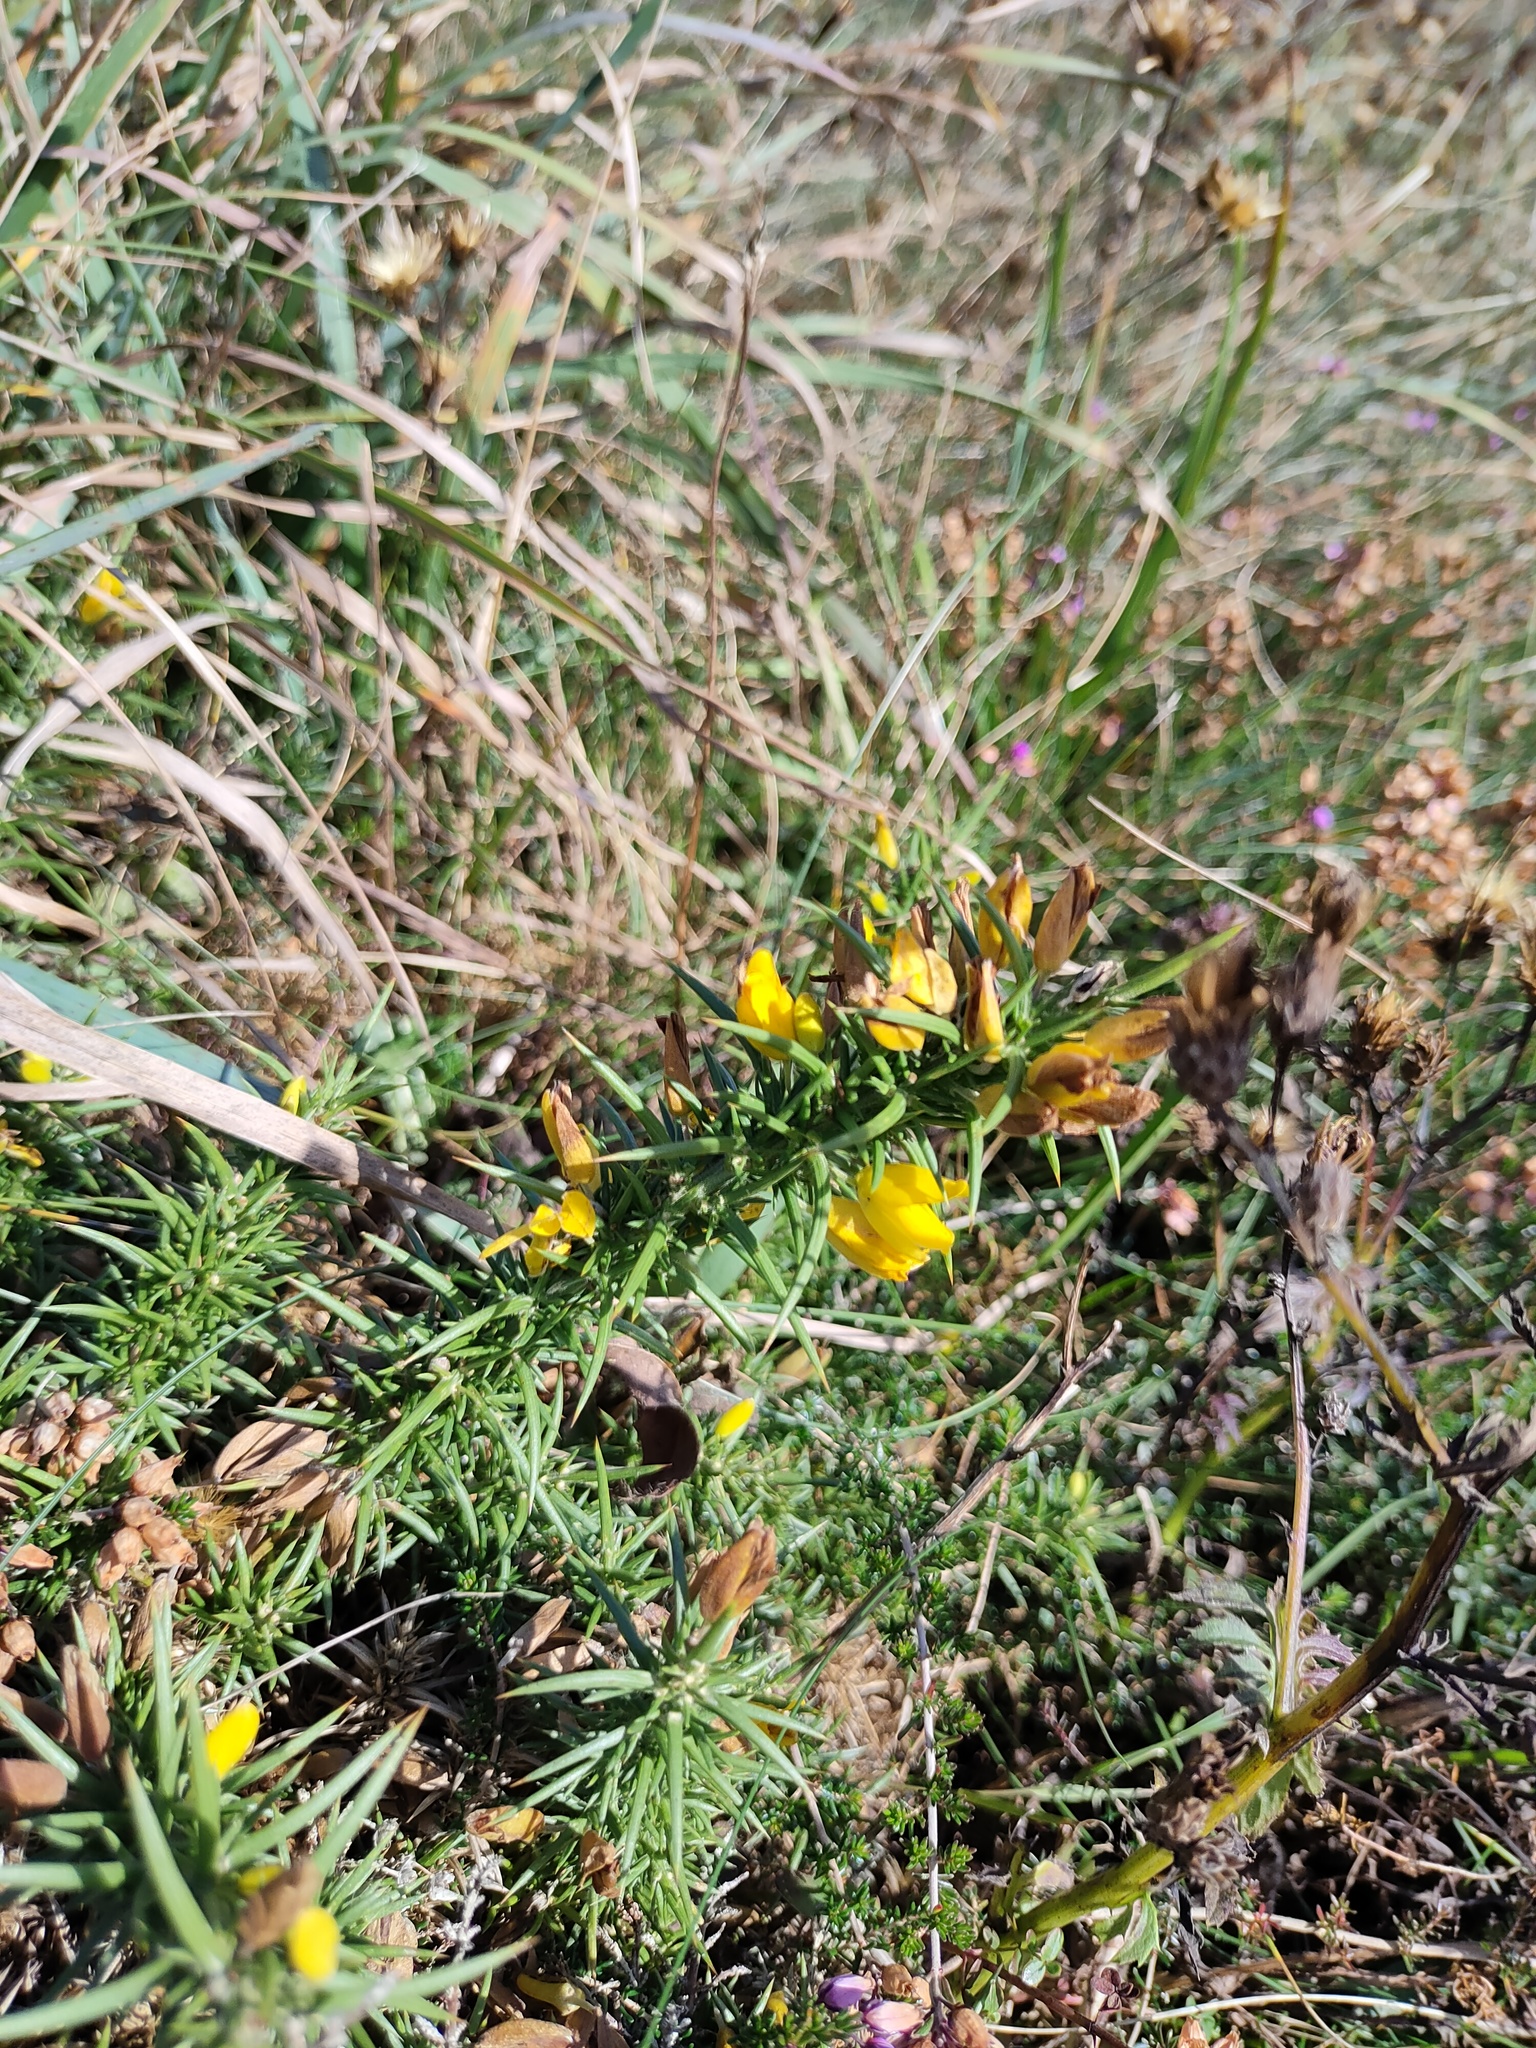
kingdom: Plantae
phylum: Tracheophyta
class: Magnoliopsida
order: Fabales
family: Fabaceae
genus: Ulex
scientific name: Ulex gallii
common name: Western gorse
